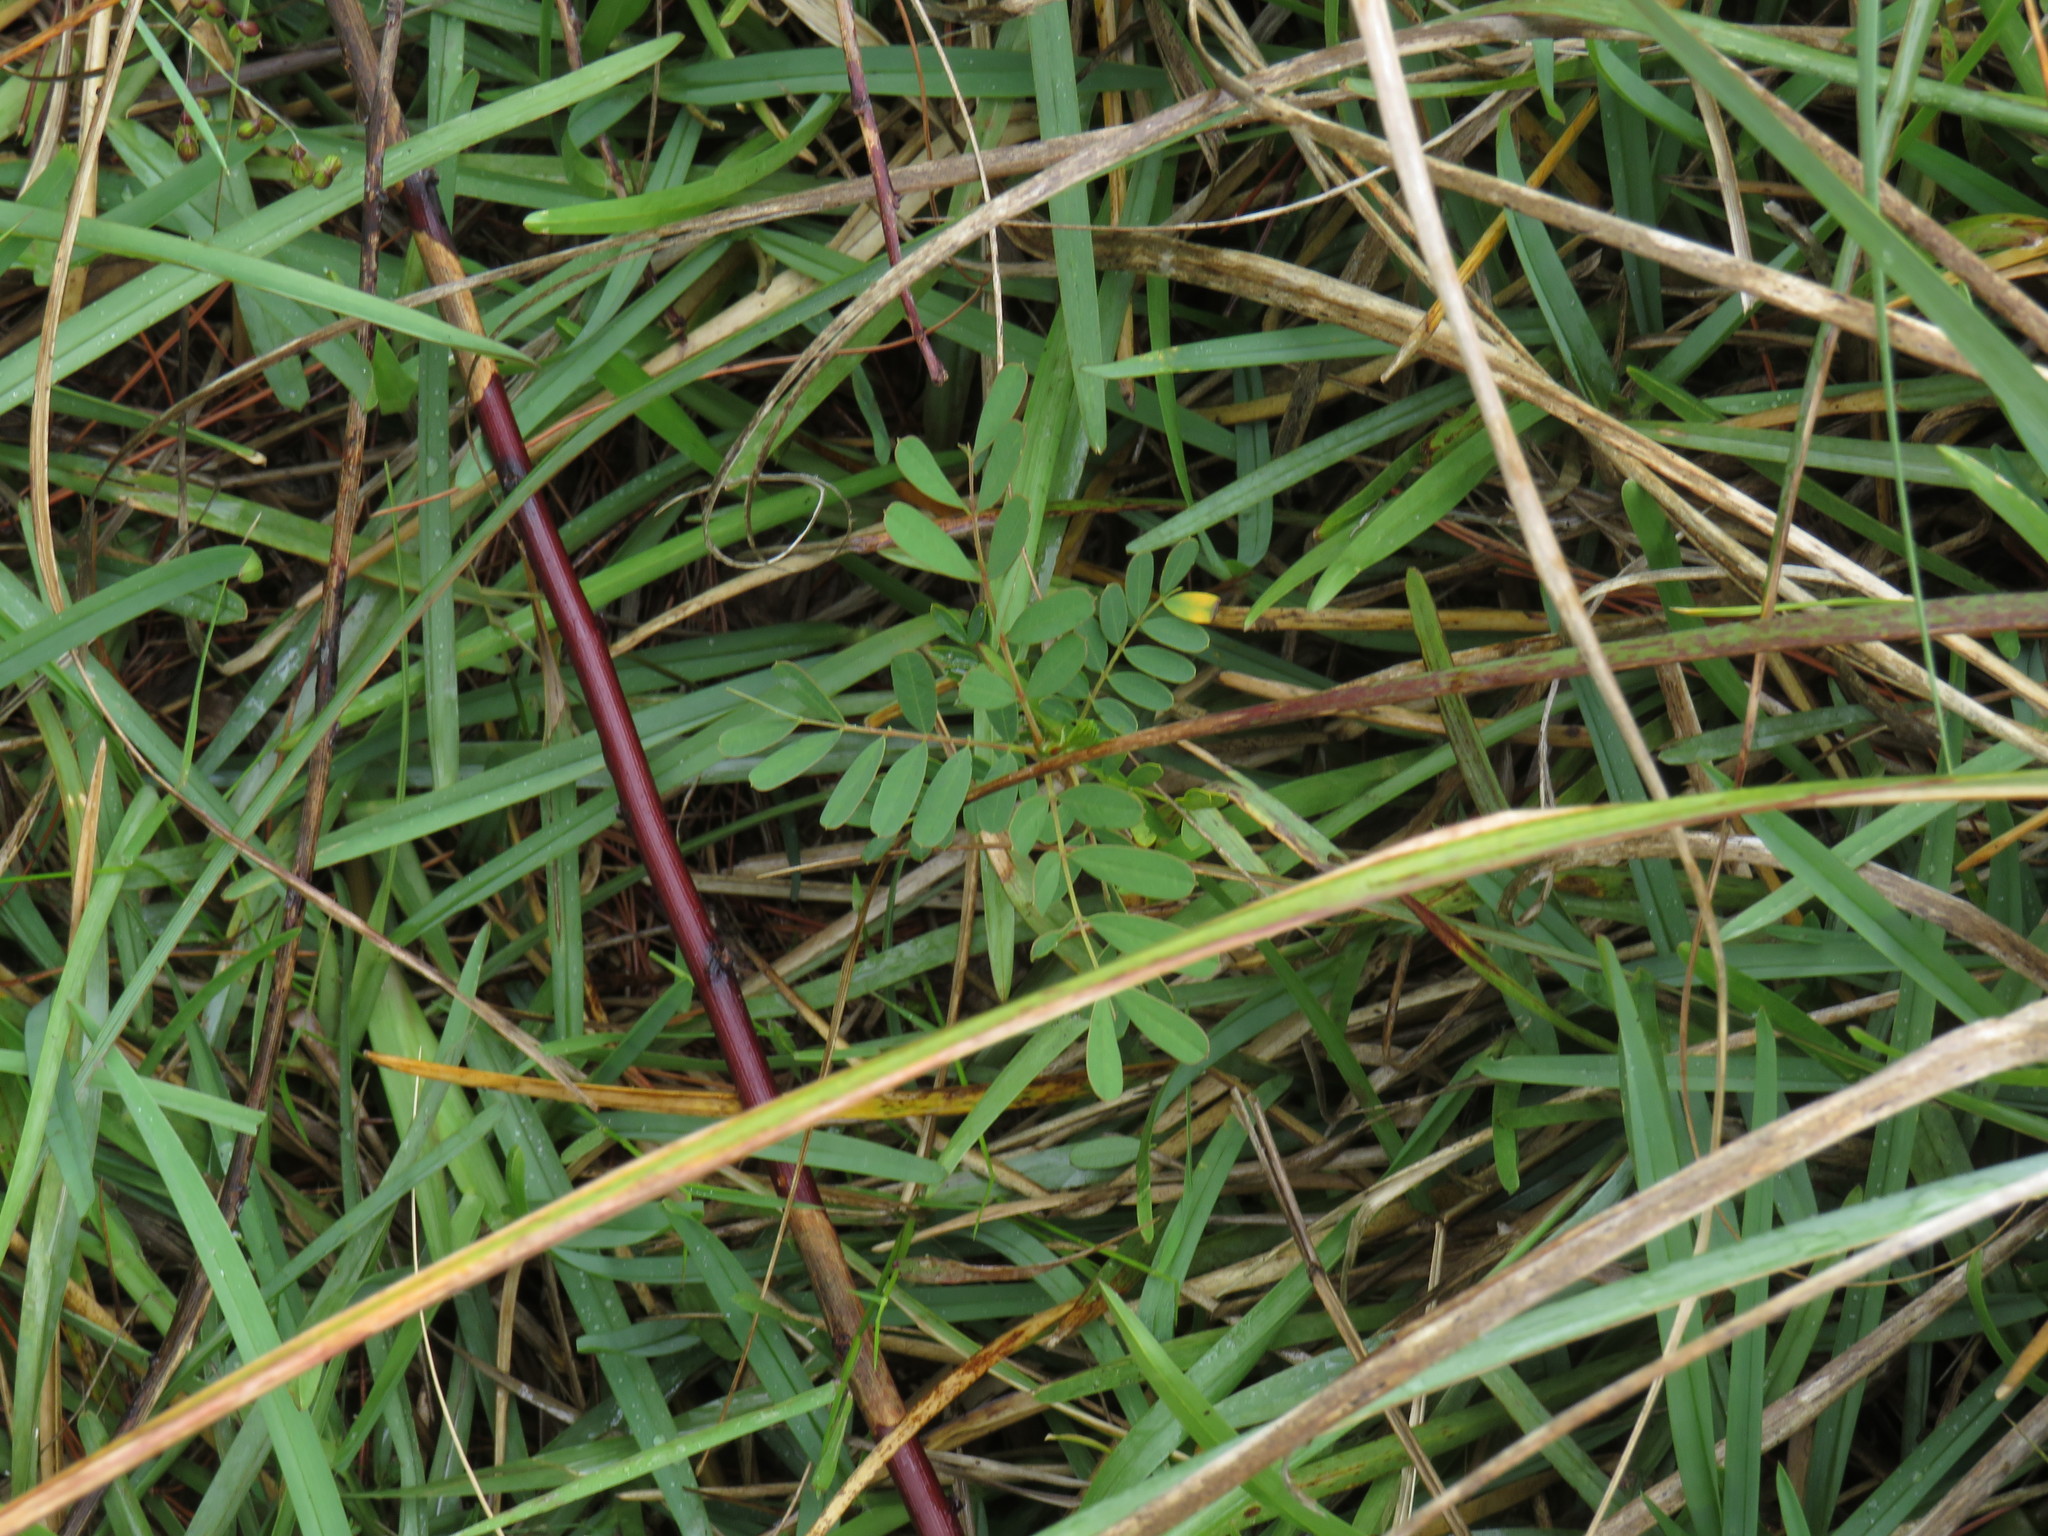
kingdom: Plantae
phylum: Tracheophyta
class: Magnoliopsida
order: Fabales
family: Fabaceae
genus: Sesbania
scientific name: Sesbania punicea
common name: Rattlebox
